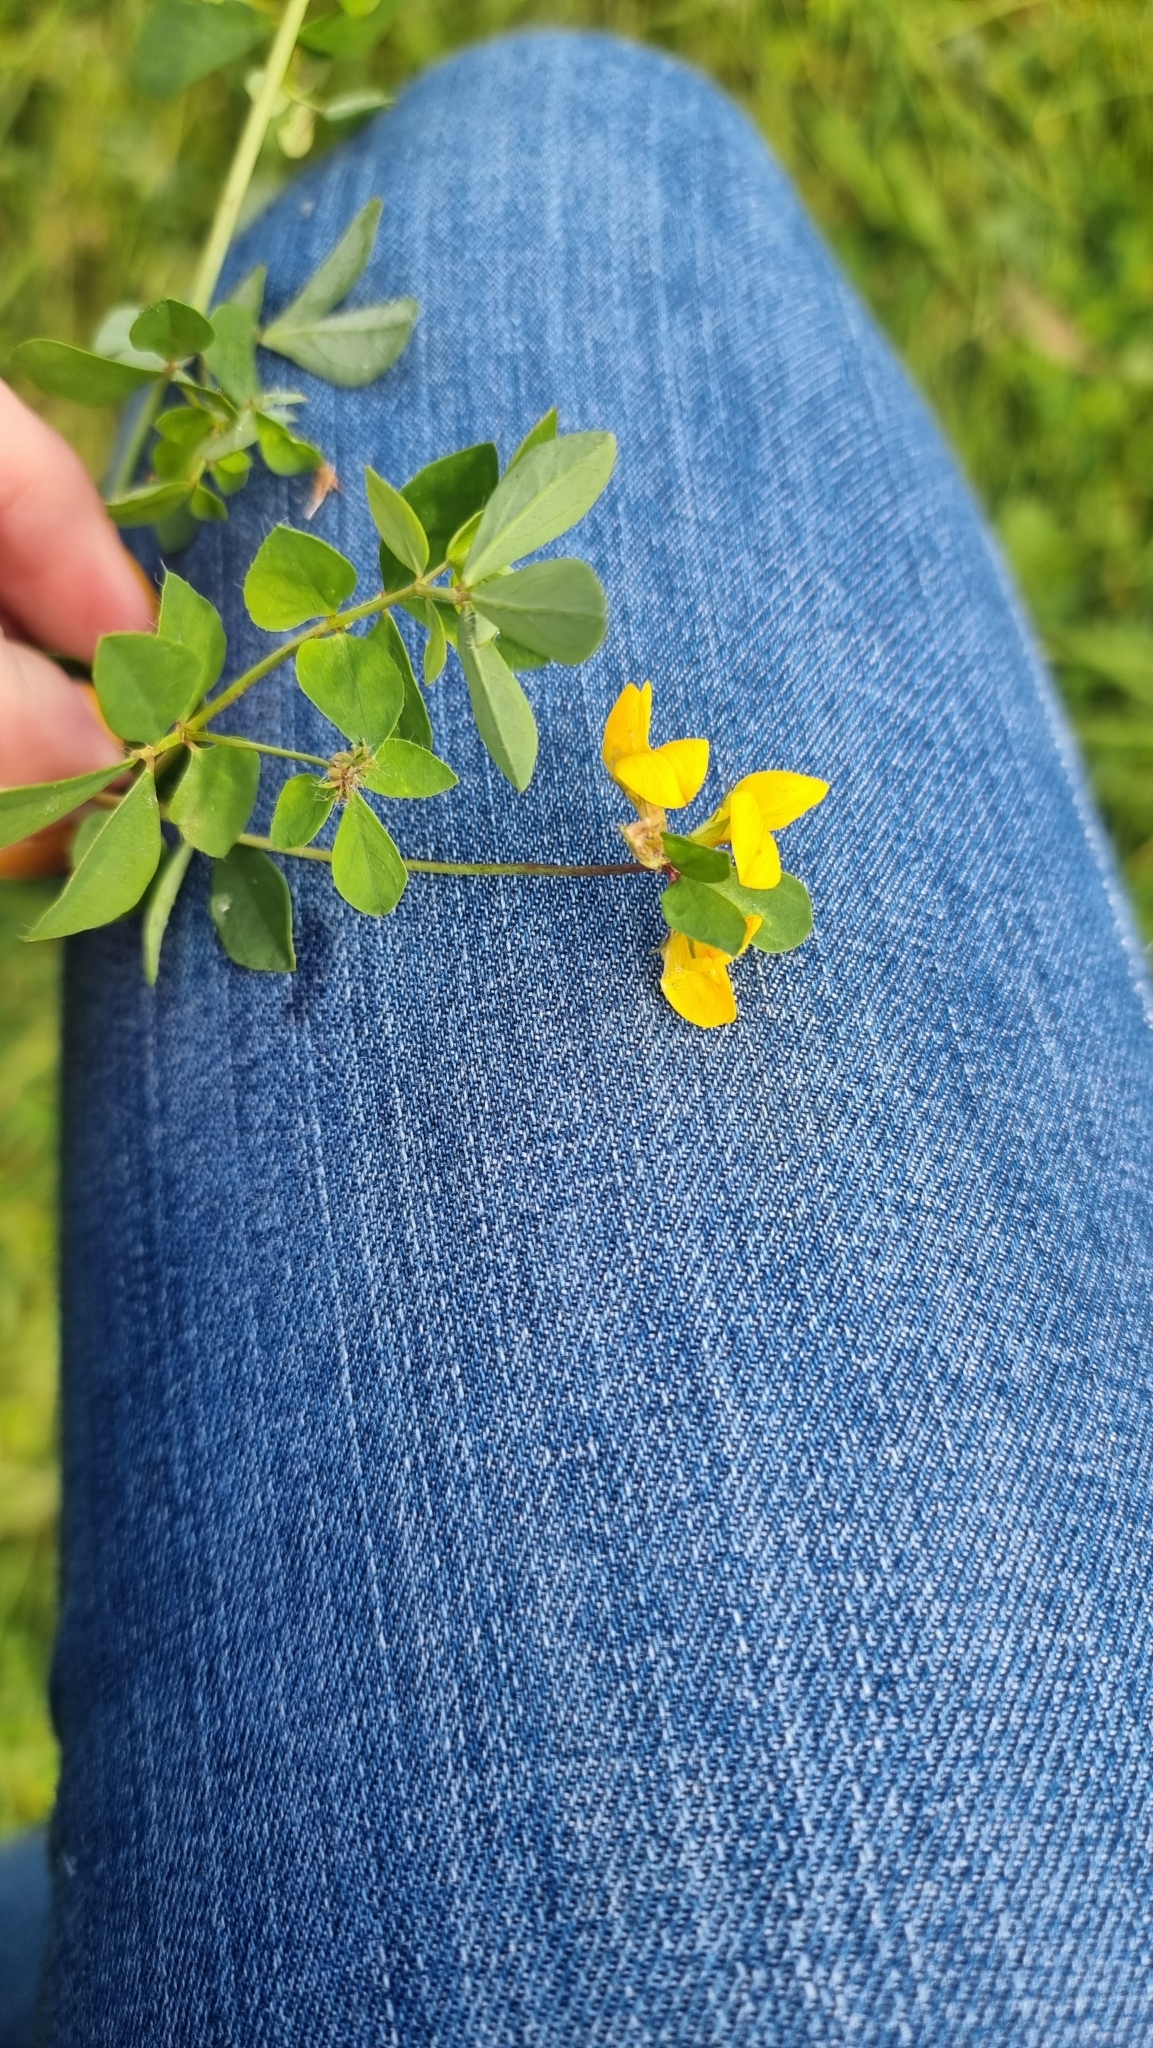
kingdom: Plantae
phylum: Tracheophyta
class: Magnoliopsida
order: Fabales
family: Fabaceae
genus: Lotus
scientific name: Lotus pedunculatus
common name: Greater birdsfoot-trefoil
